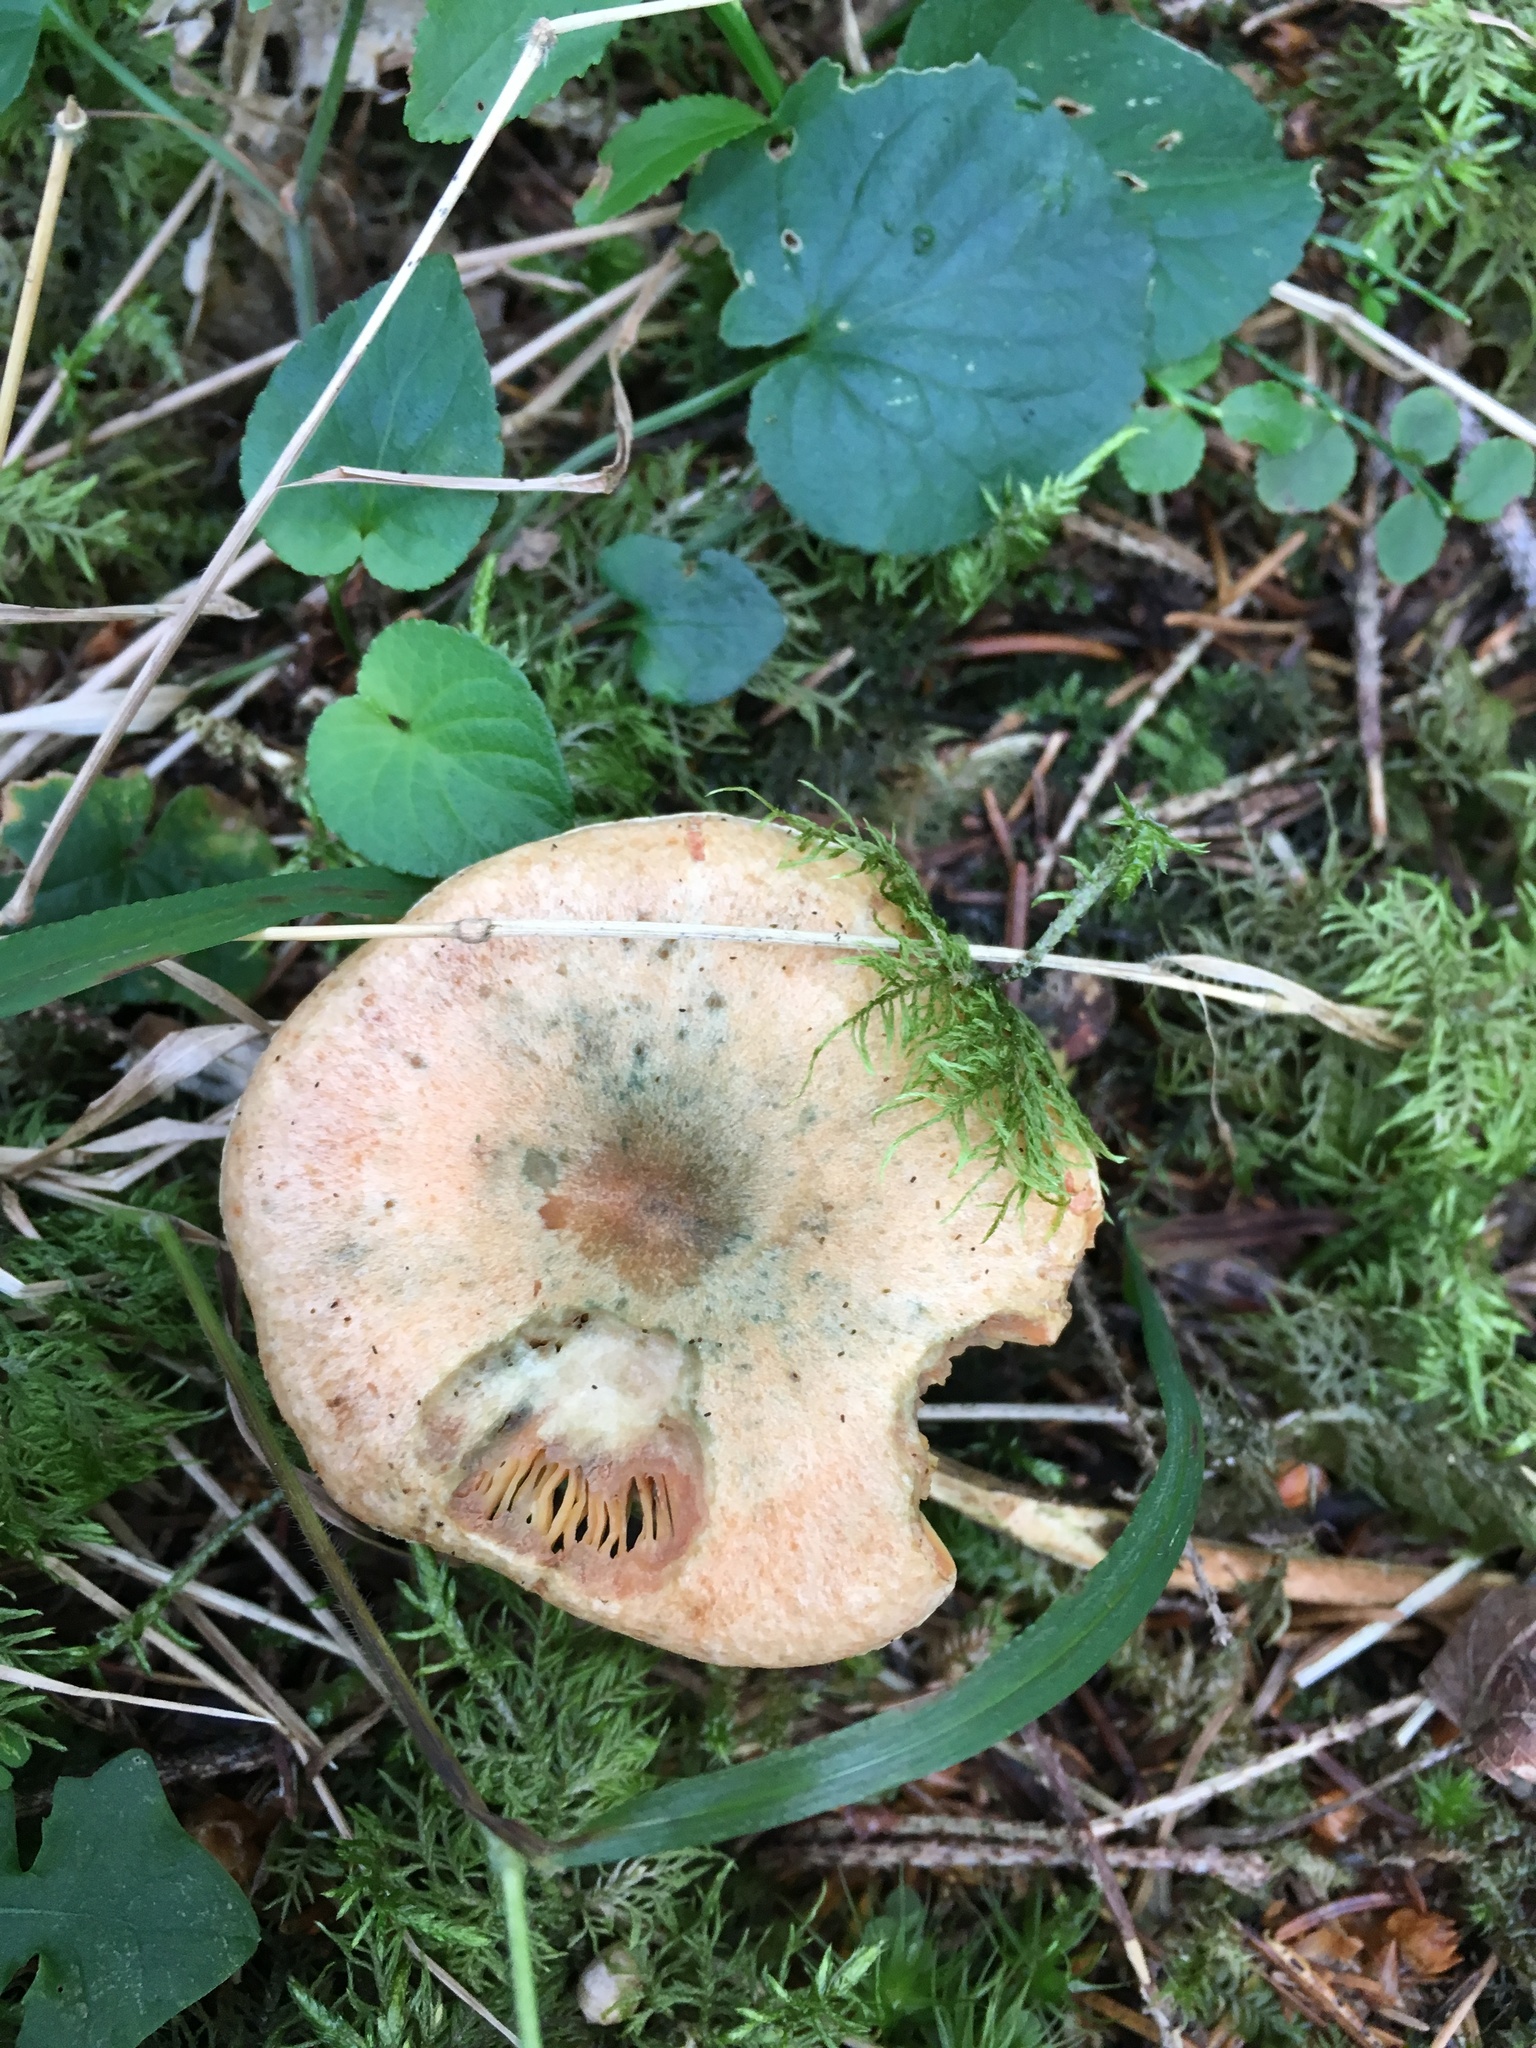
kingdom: Fungi
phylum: Basidiomycota
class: Agaricomycetes
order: Russulales
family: Russulaceae
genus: Lactarius
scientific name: Lactarius deterrimus
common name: False saffron milkcap
